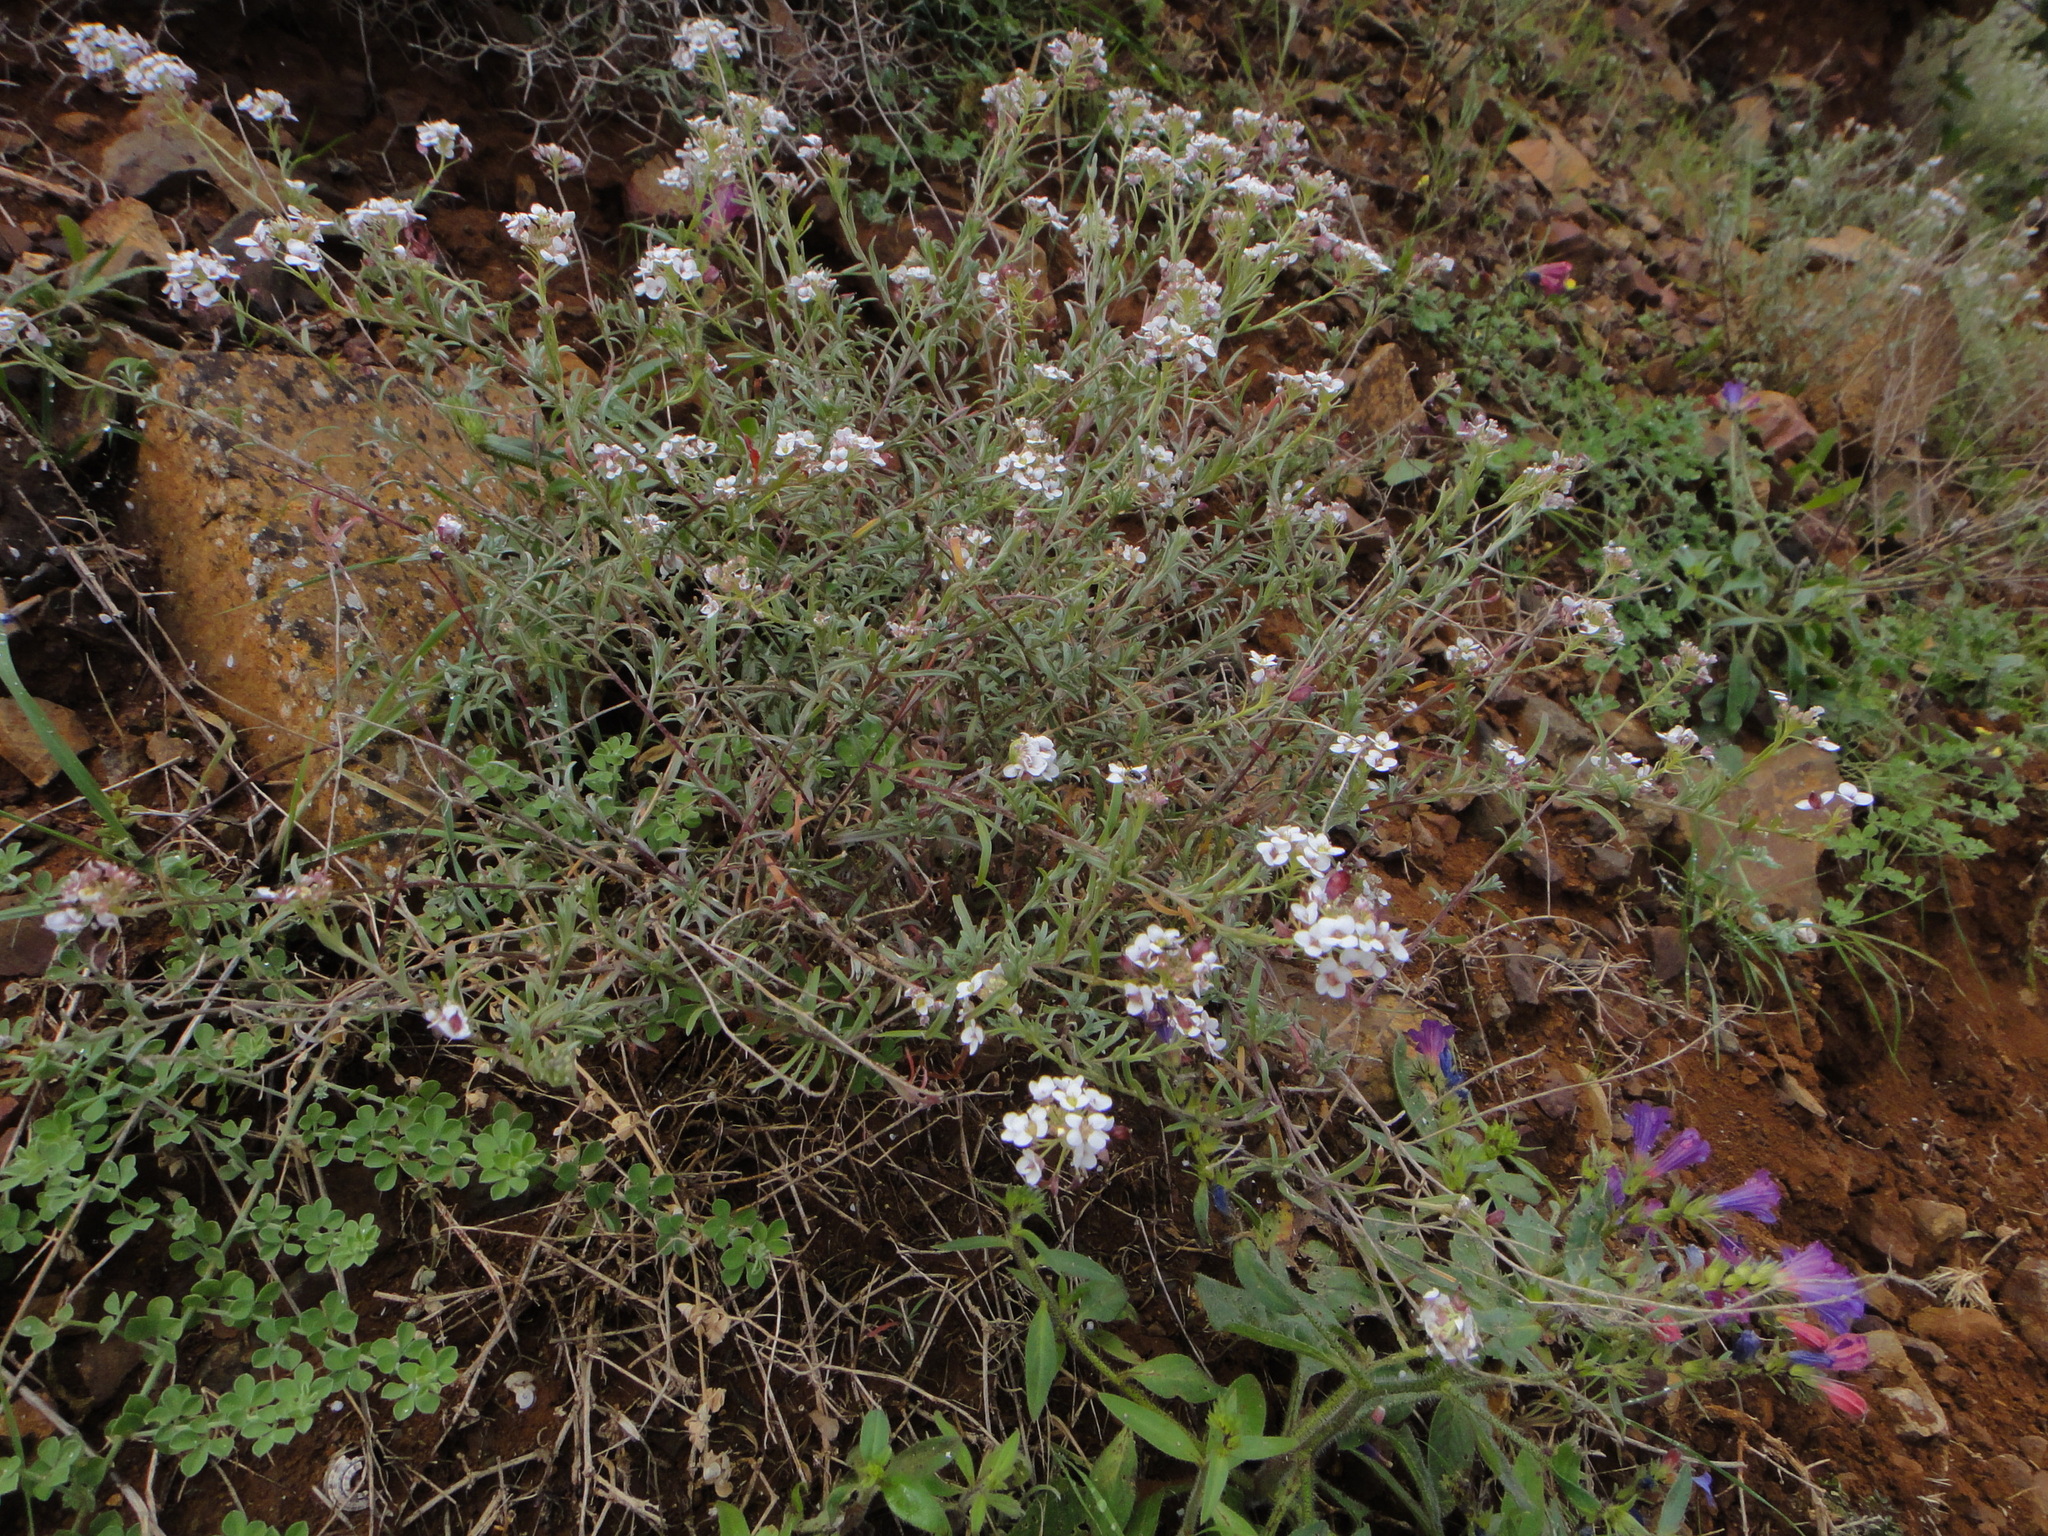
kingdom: Plantae
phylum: Tracheophyta
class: Magnoliopsida
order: Brassicales
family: Brassicaceae
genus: Lobularia
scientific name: Lobularia canariensis
